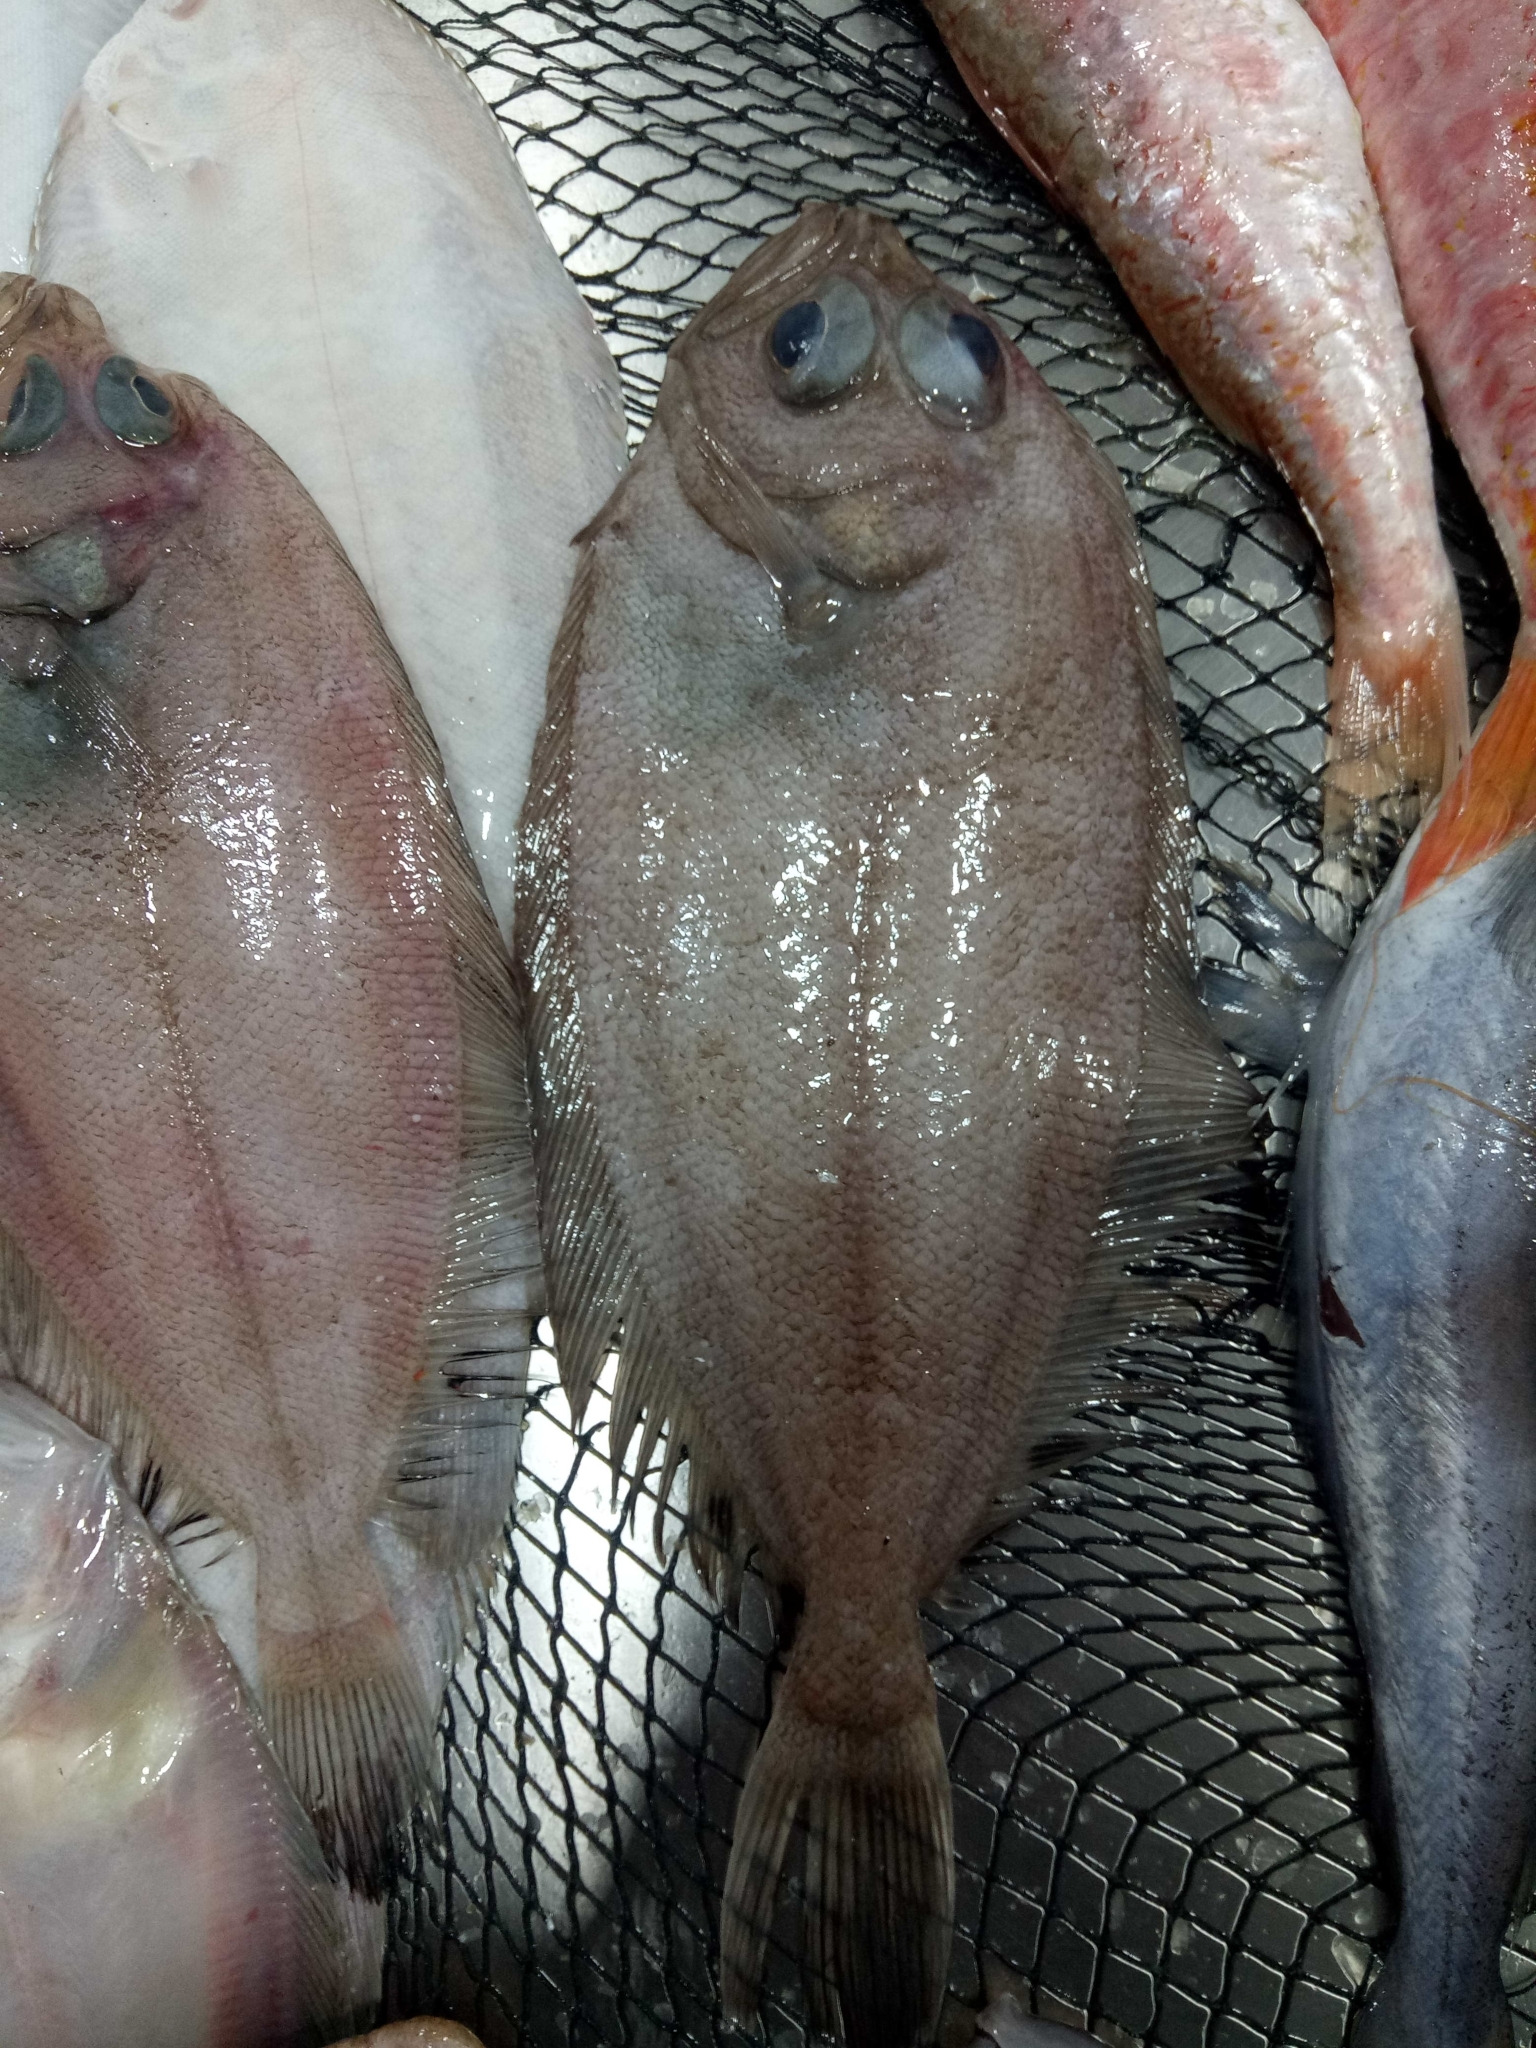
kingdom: Animalia
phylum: Chordata
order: Pleuronectiformes
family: Scophthalmidae
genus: Lepidorhombus
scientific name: Lepidorhombus boscii
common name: Megrim
